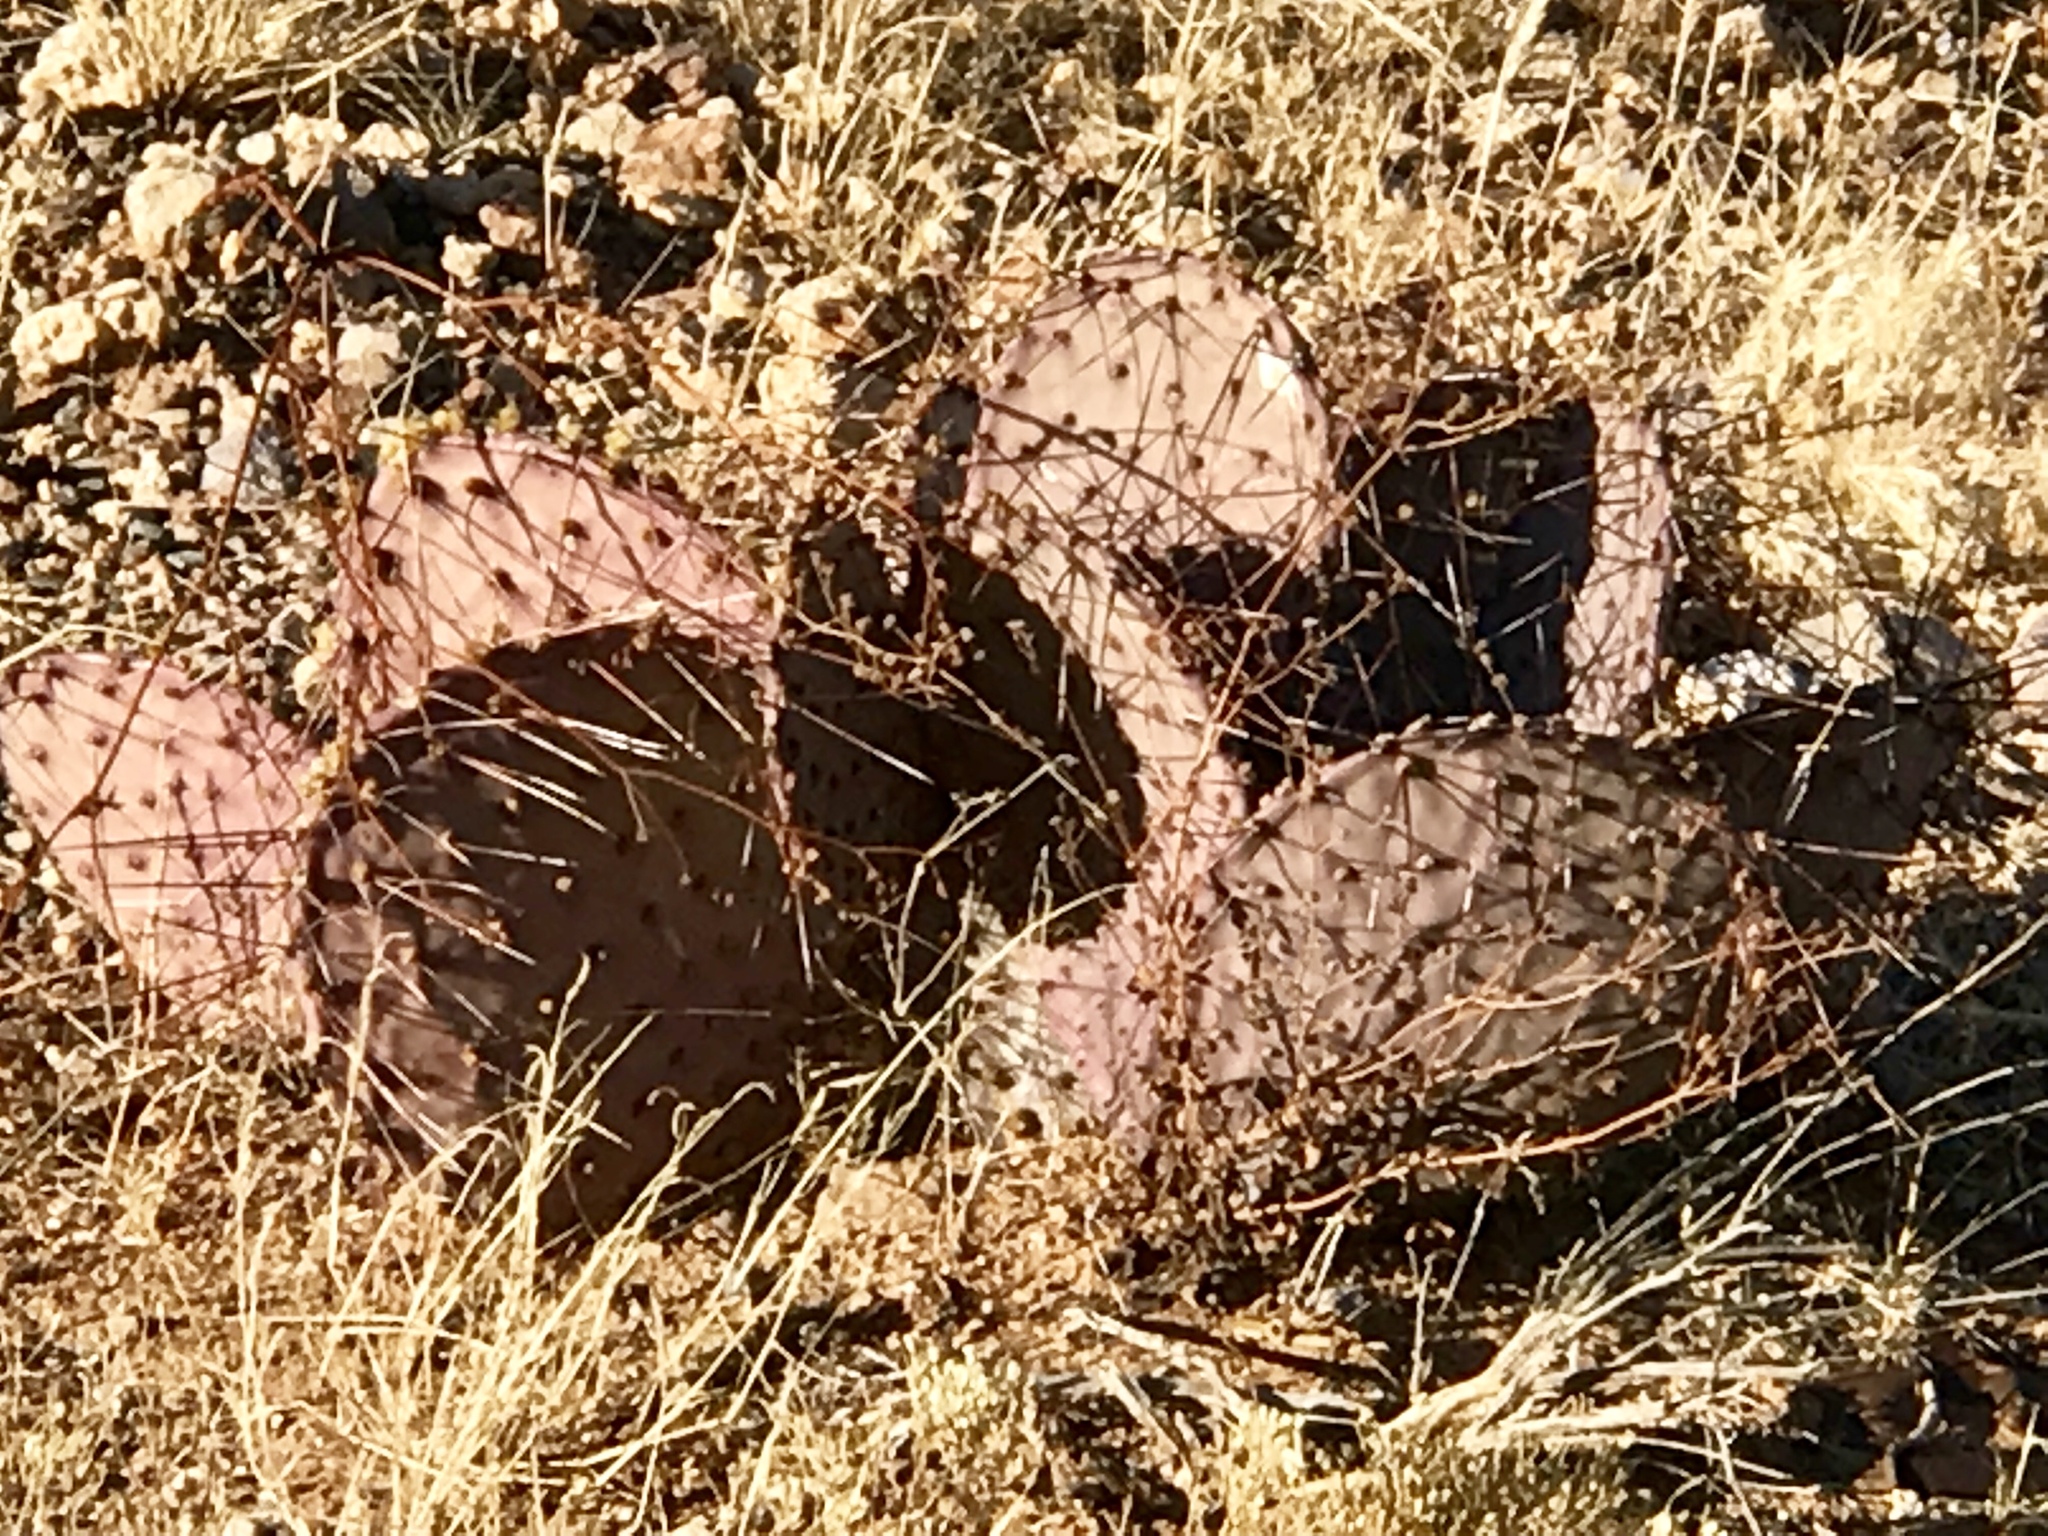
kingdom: Plantae
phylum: Tracheophyta
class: Magnoliopsida
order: Caryophyllales
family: Cactaceae
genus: Opuntia
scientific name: Opuntia macrocentra
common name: Purple prickly-pear
